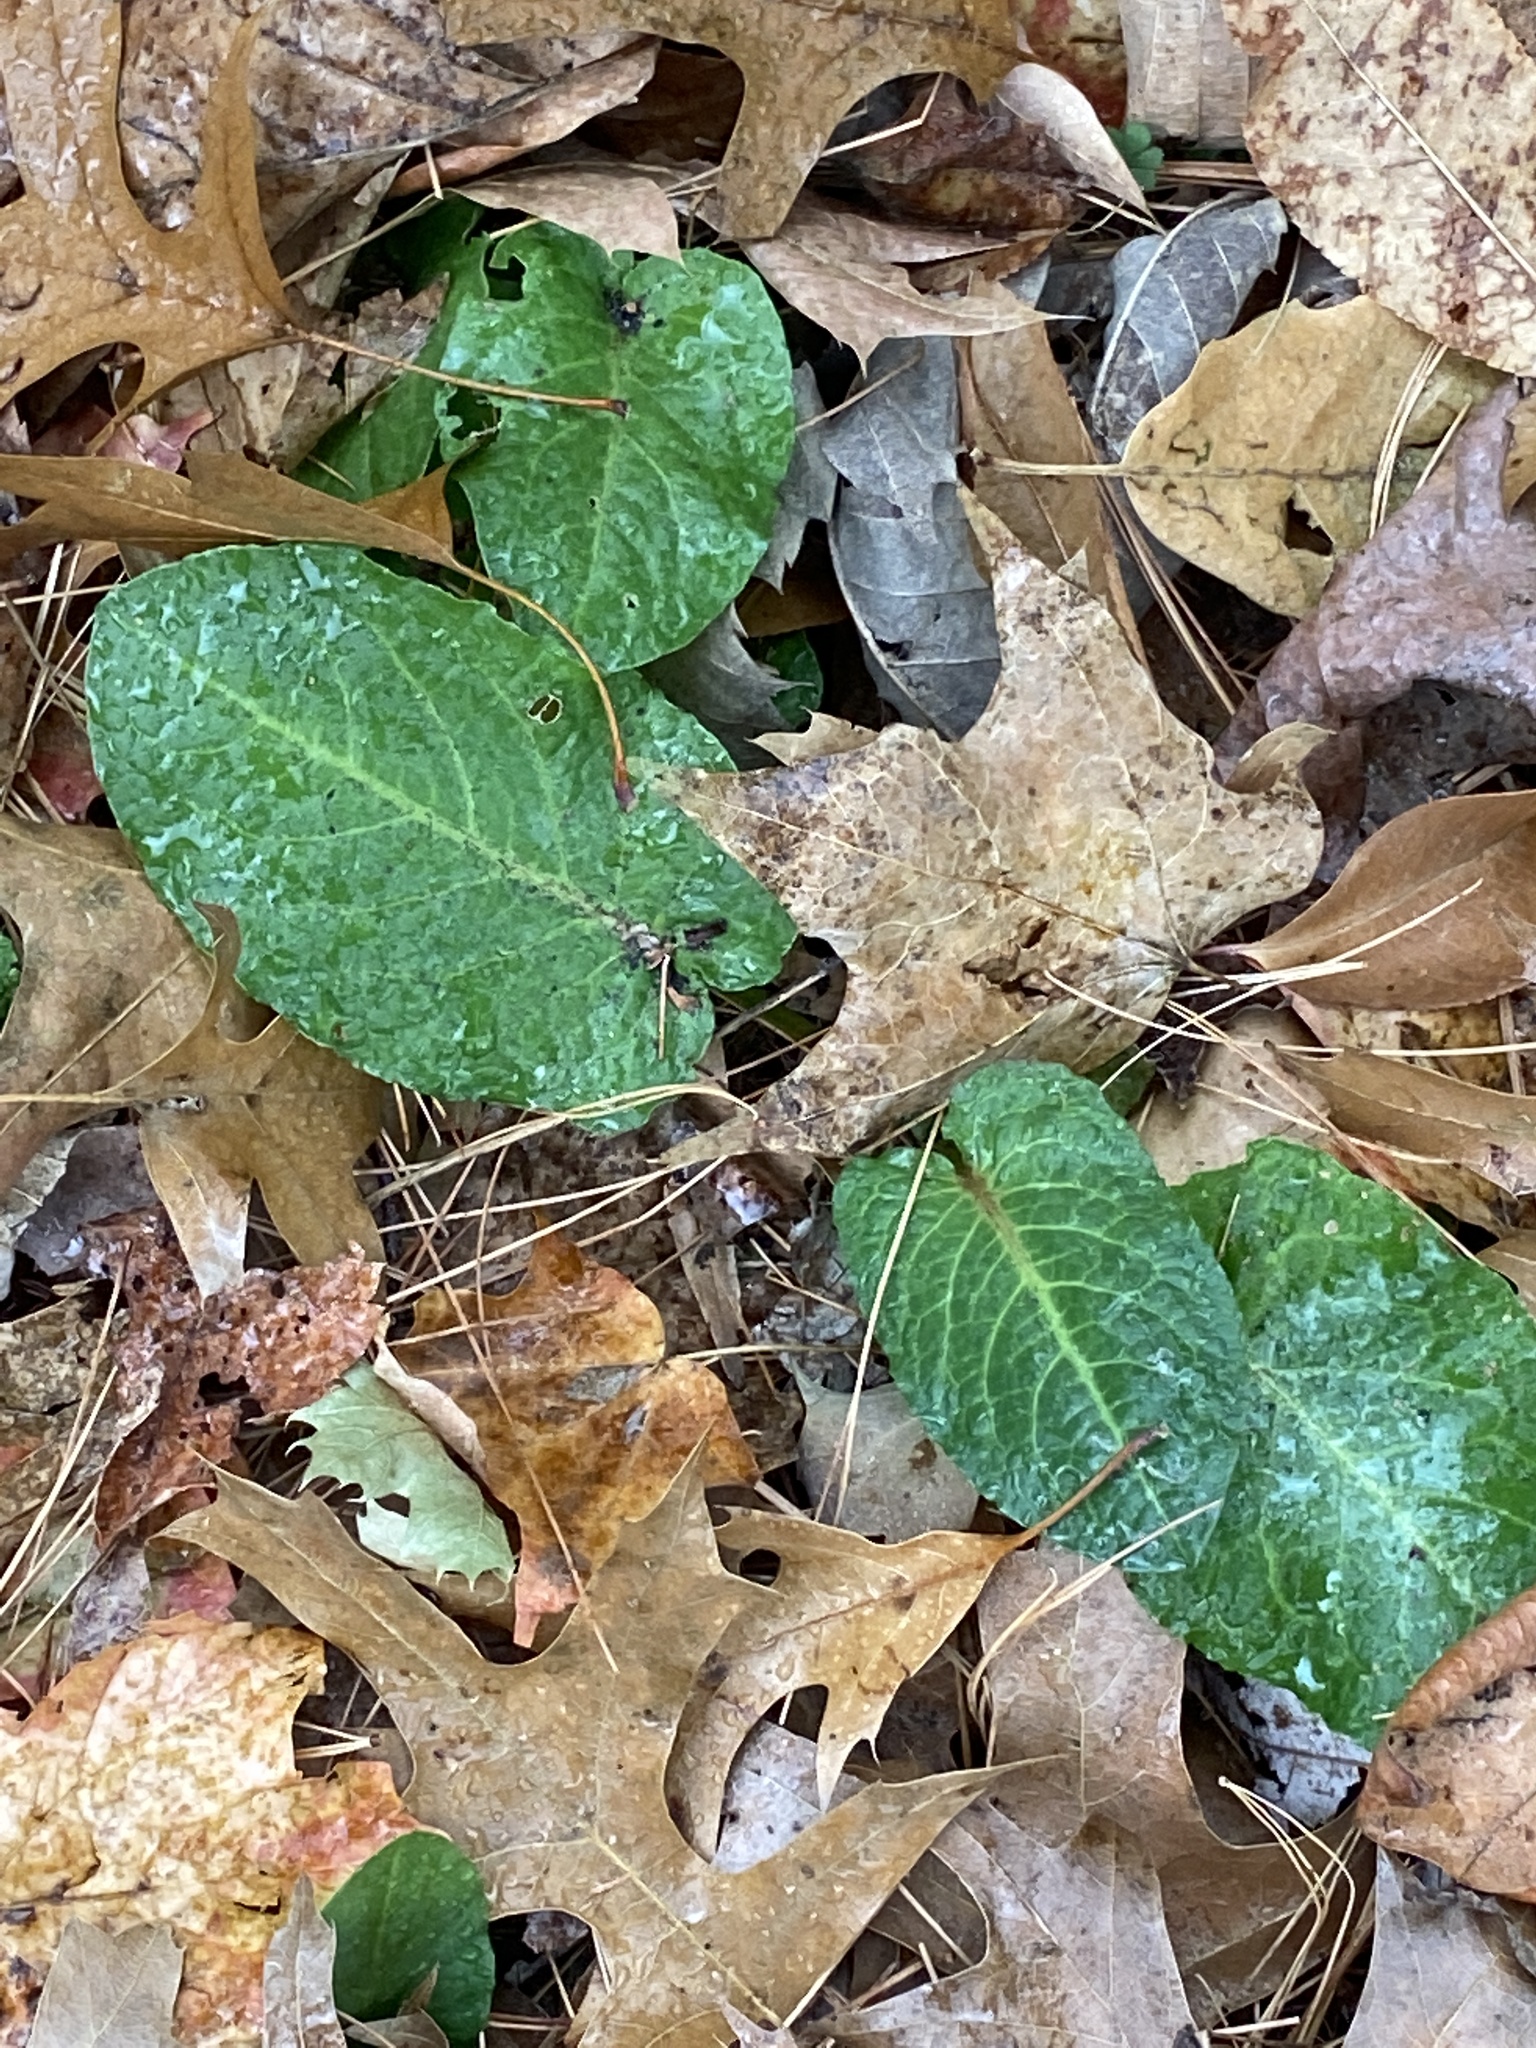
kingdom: Plantae
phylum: Tracheophyta
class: Magnoliopsida
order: Caryophyllales
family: Polygonaceae
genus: Rumex
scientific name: Rumex obtusifolius
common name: Bitter dock
